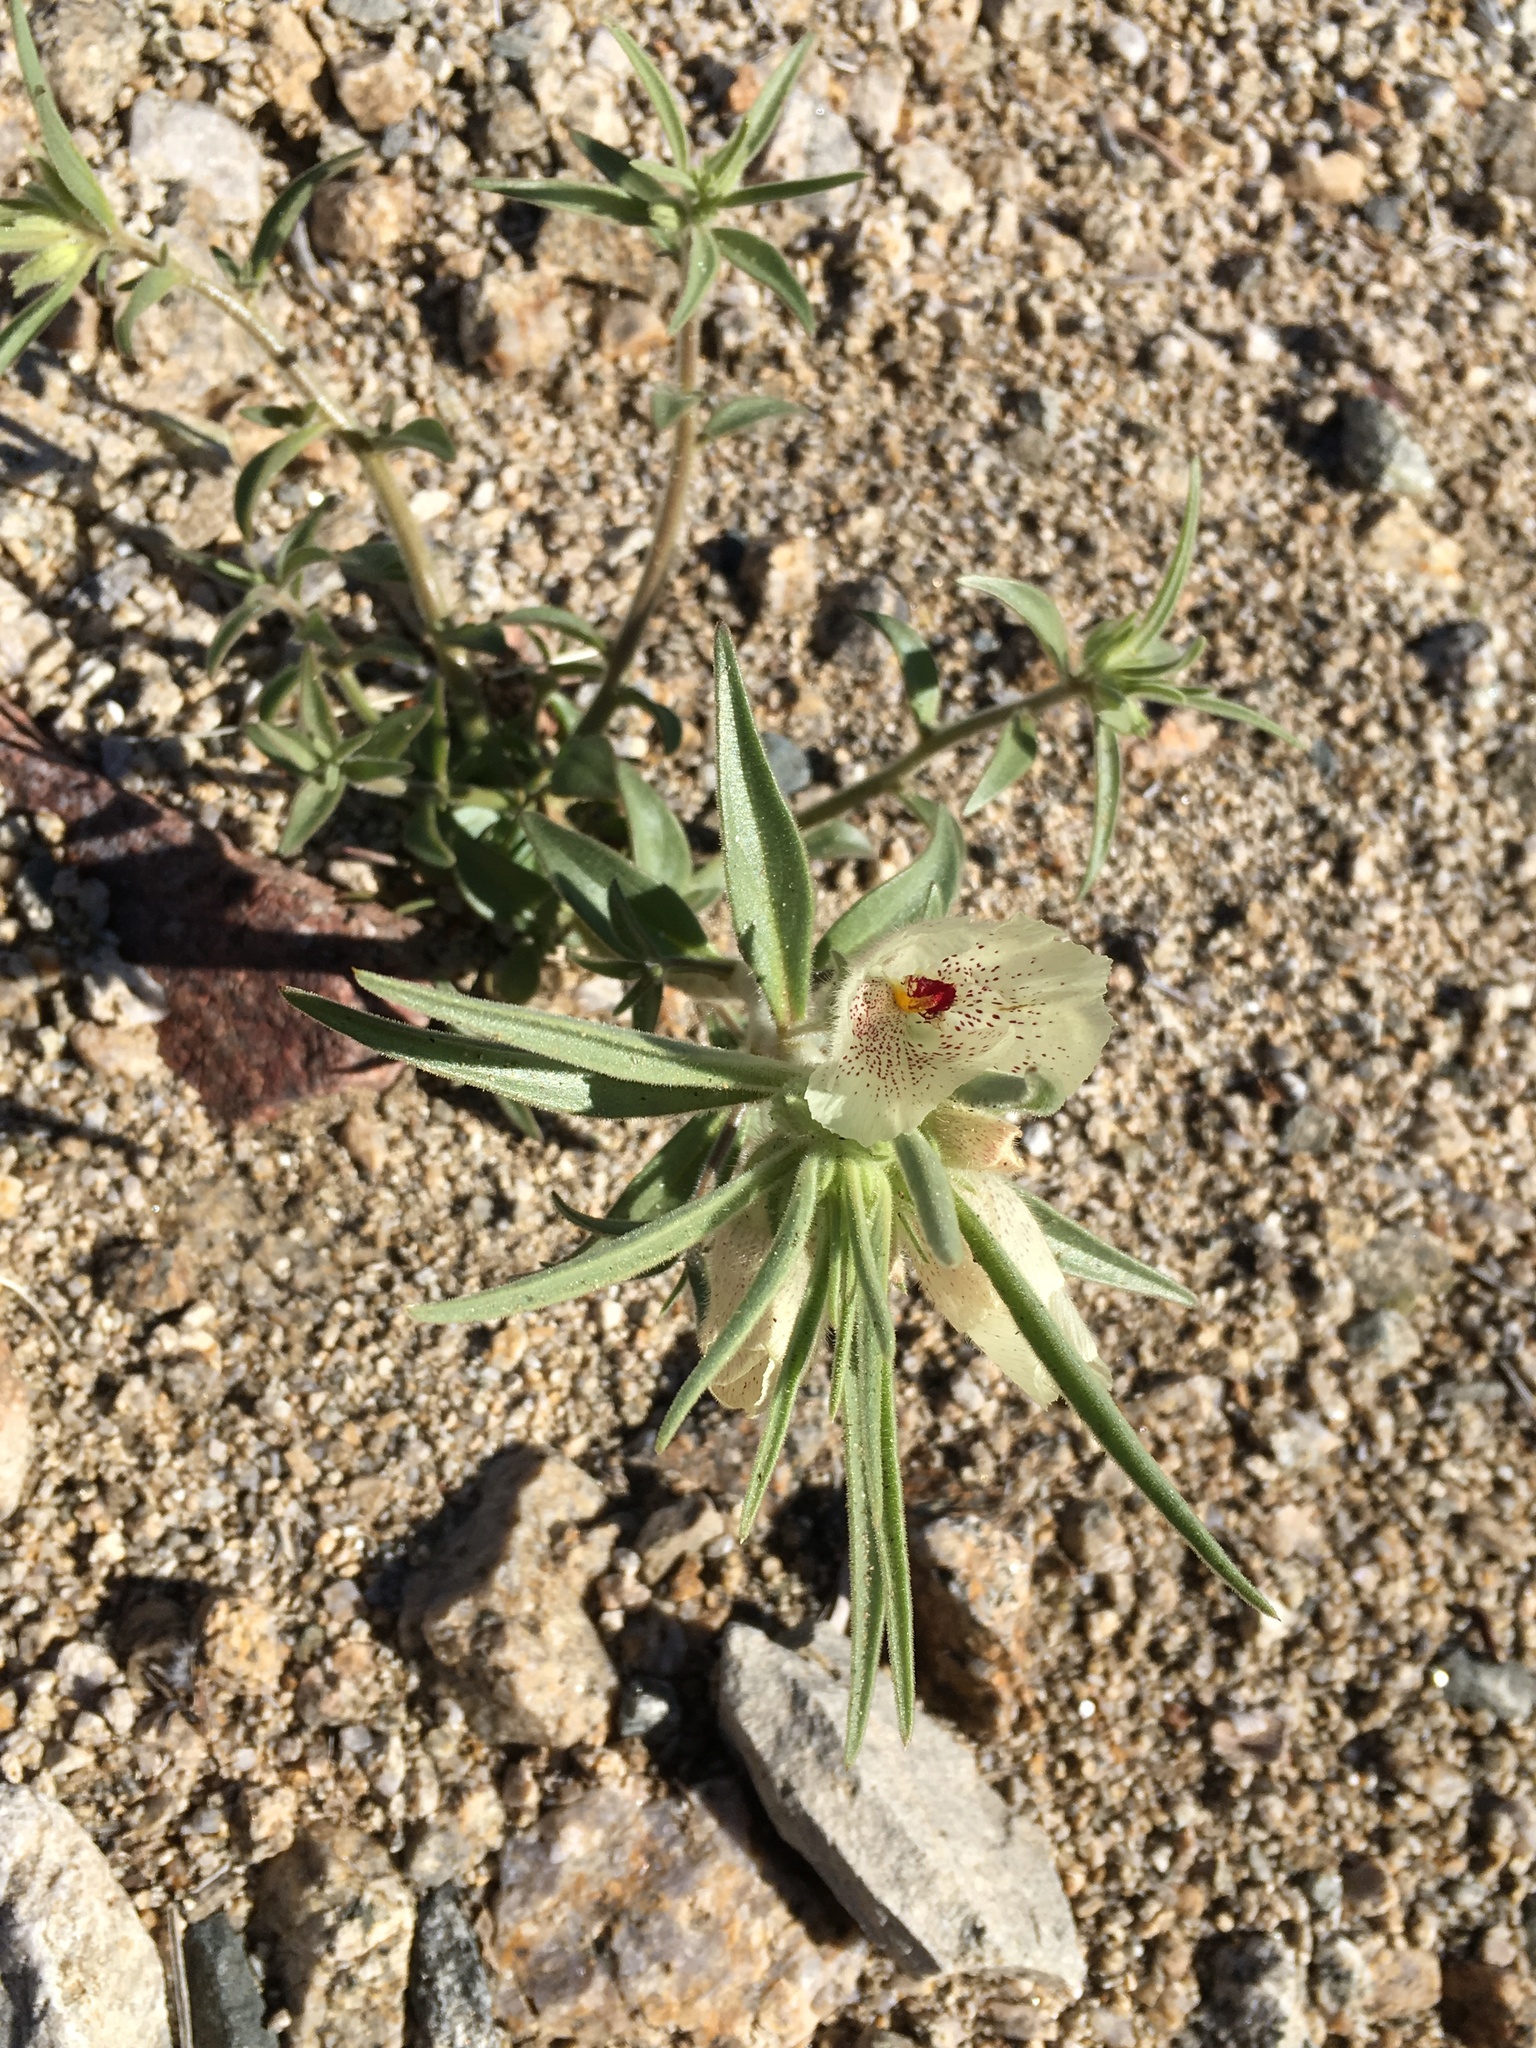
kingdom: Plantae
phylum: Tracheophyta
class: Magnoliopsida
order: Lamiales
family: Plantaginaceae
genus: Mohavea
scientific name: Mohavea confertiflora
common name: Ghost flower
